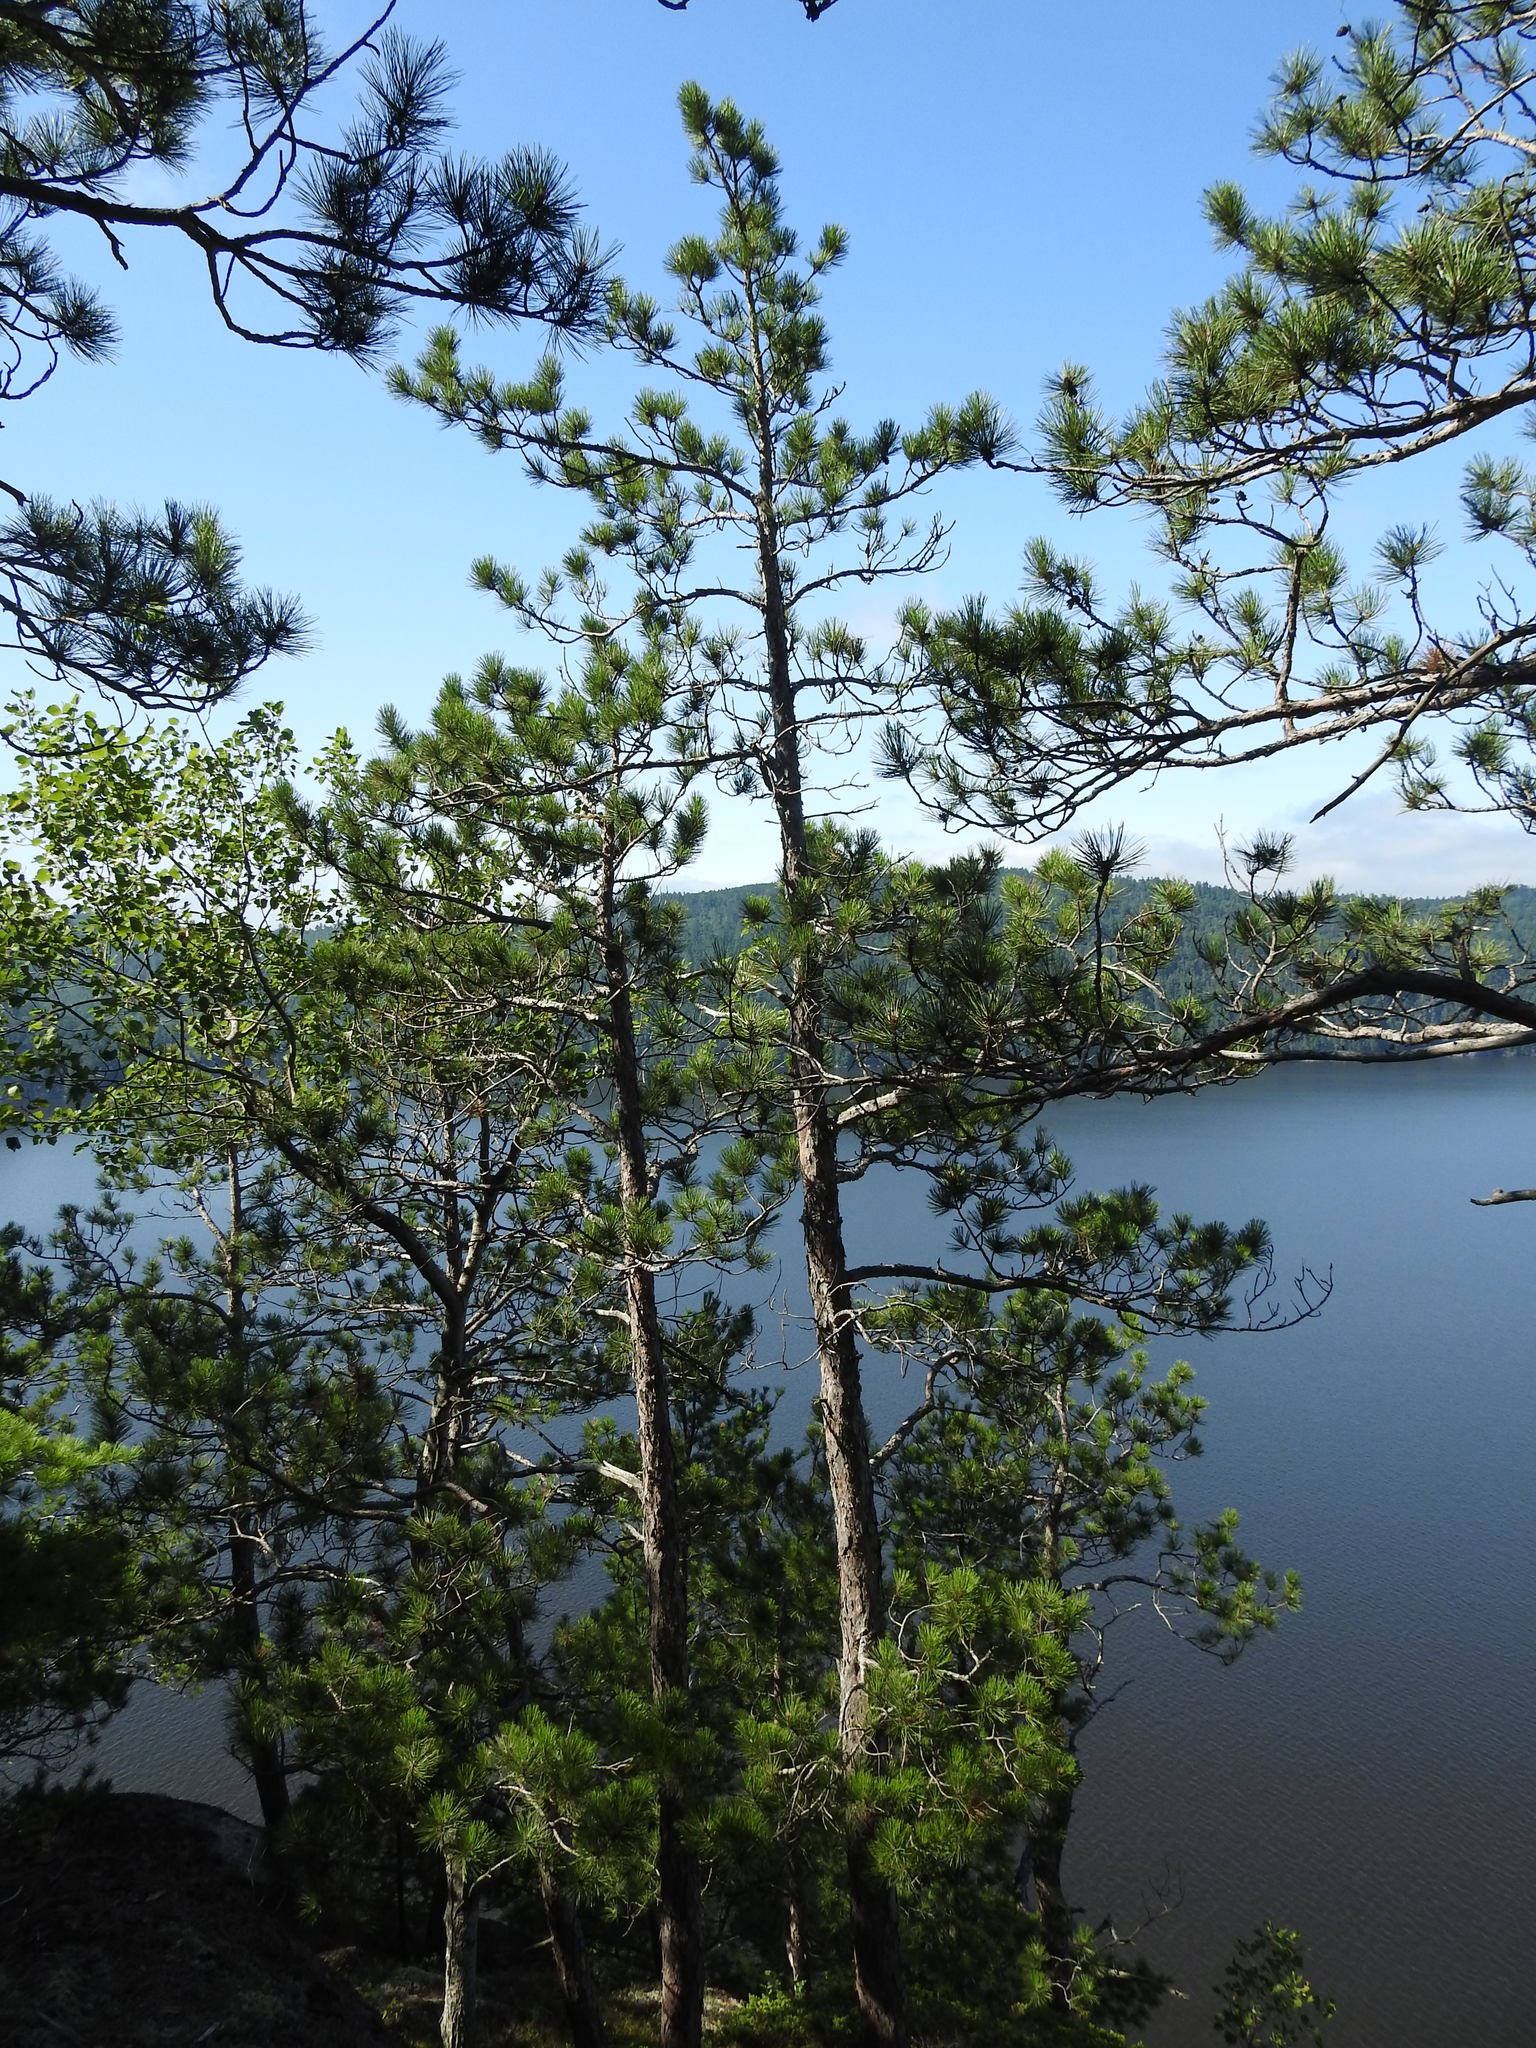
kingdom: Plantae
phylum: Tracheophyta
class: Pinopsida
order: Pinales
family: Pinaceae
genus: Pinus
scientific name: Pinus resinosa
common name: Norway pine
